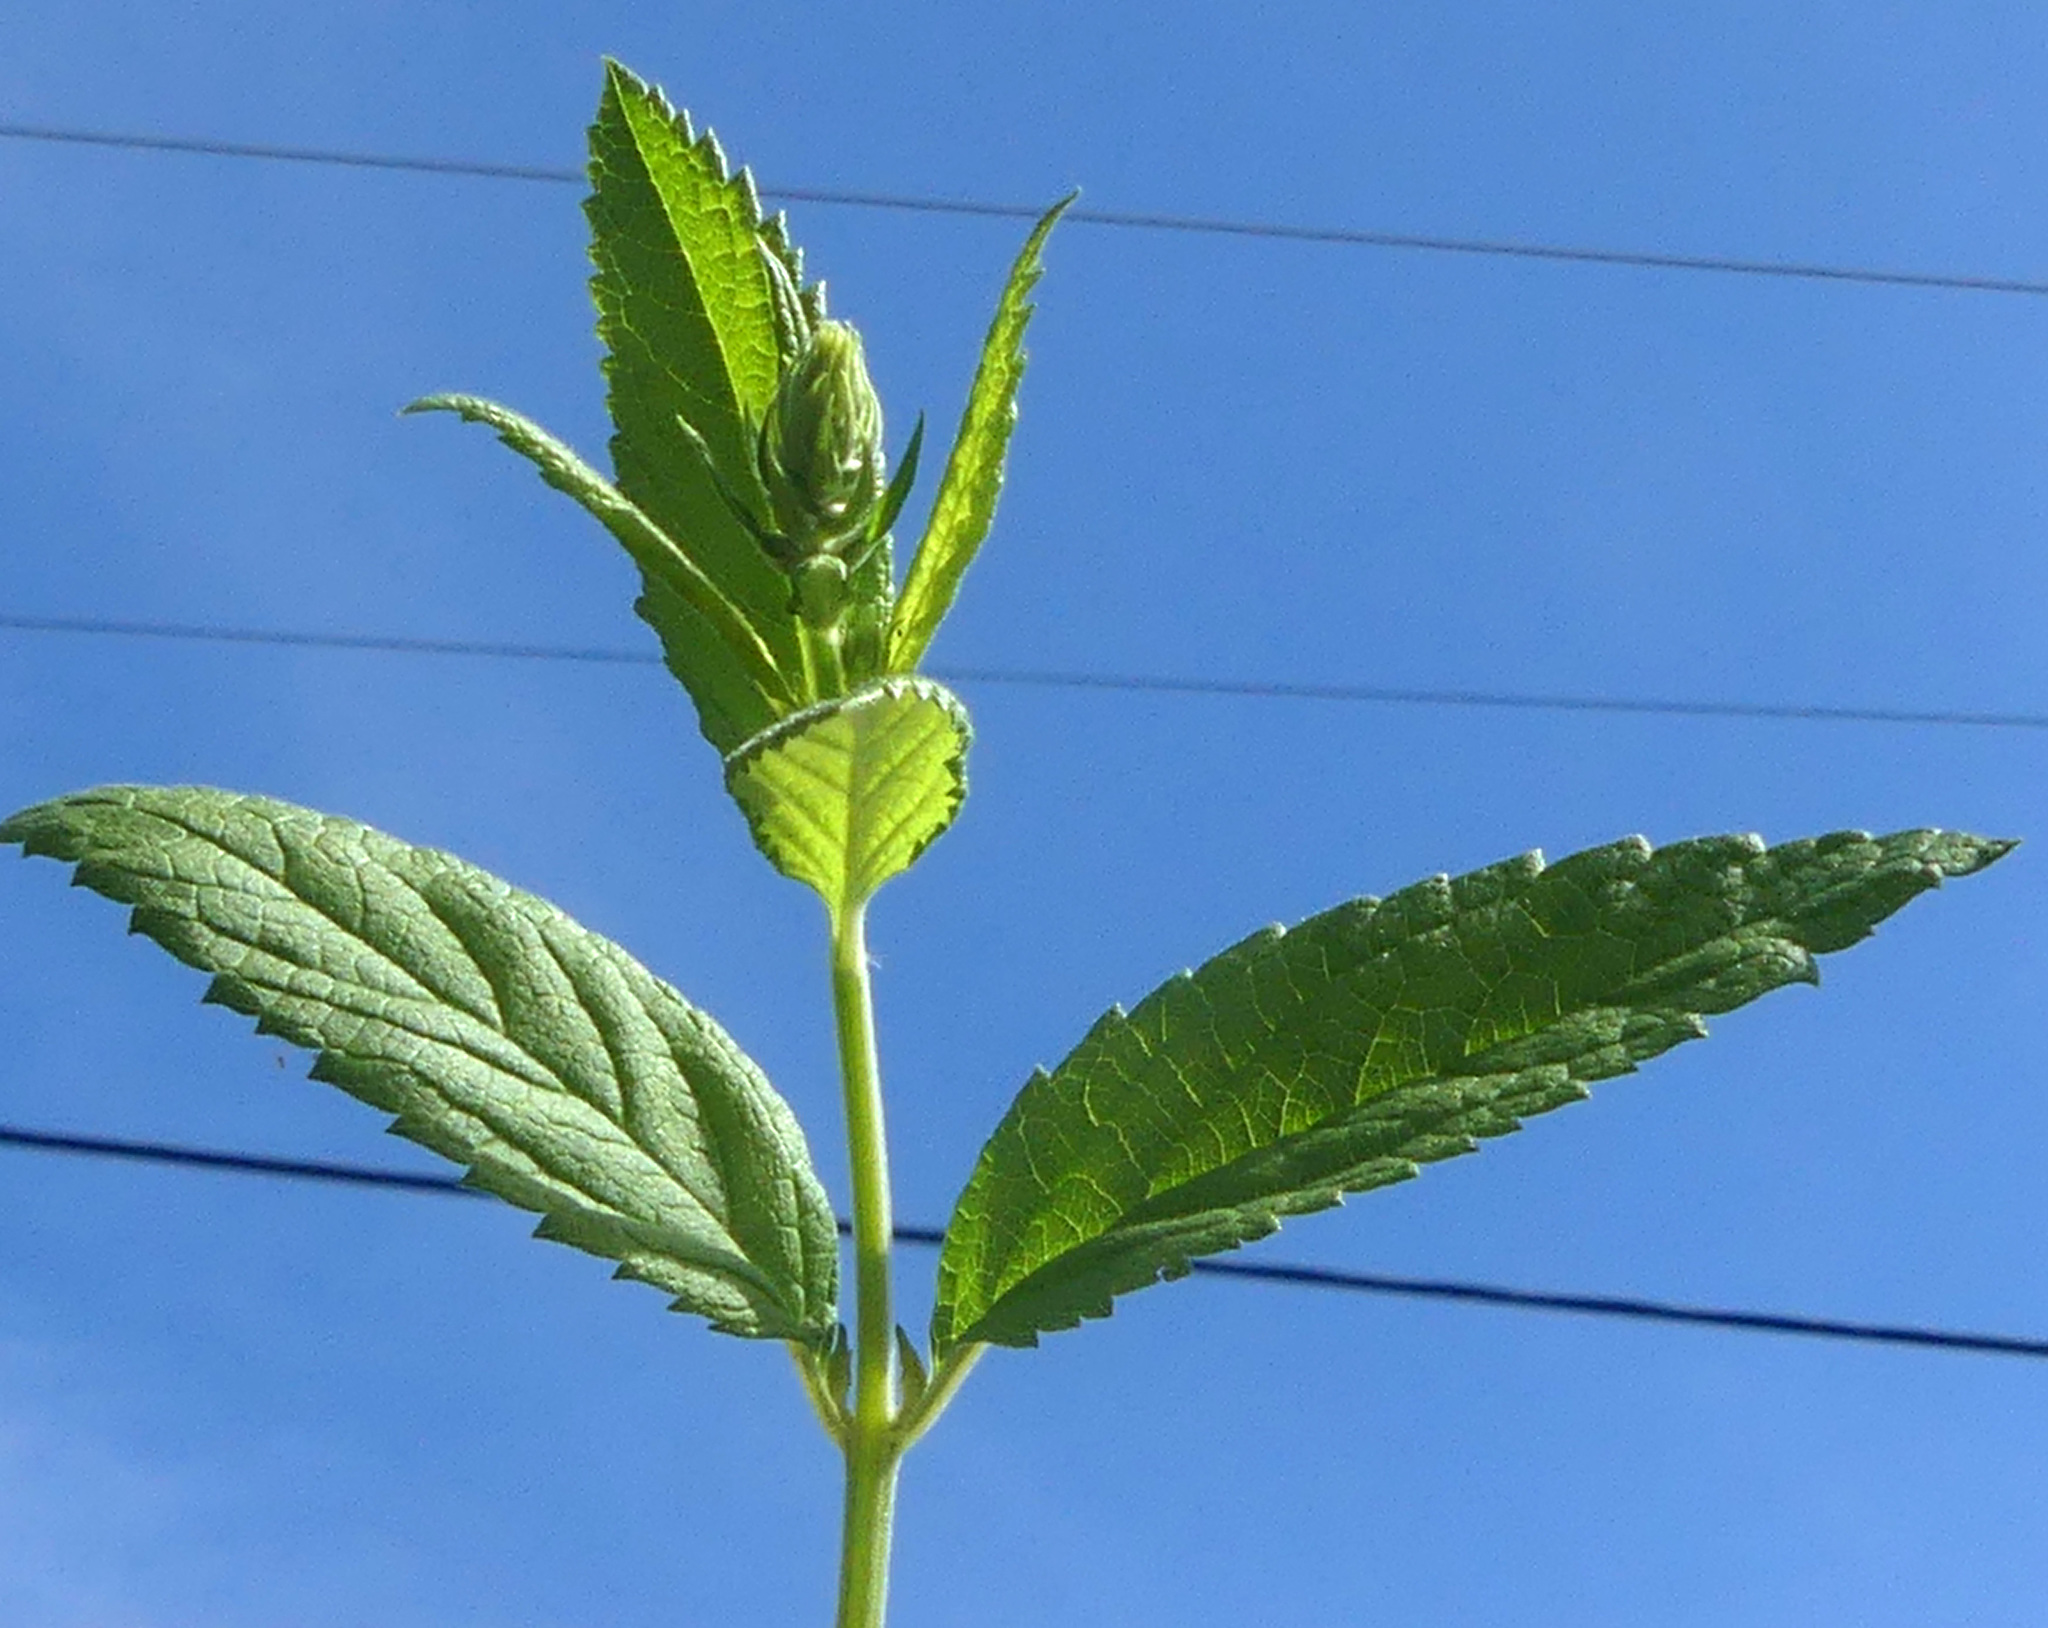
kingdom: Plantae
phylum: Tracheophyta
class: Magnoliopsida
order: Lamiales
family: Lamiaceae
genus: Teucrium
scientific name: Teucrium canadense
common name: American germander
